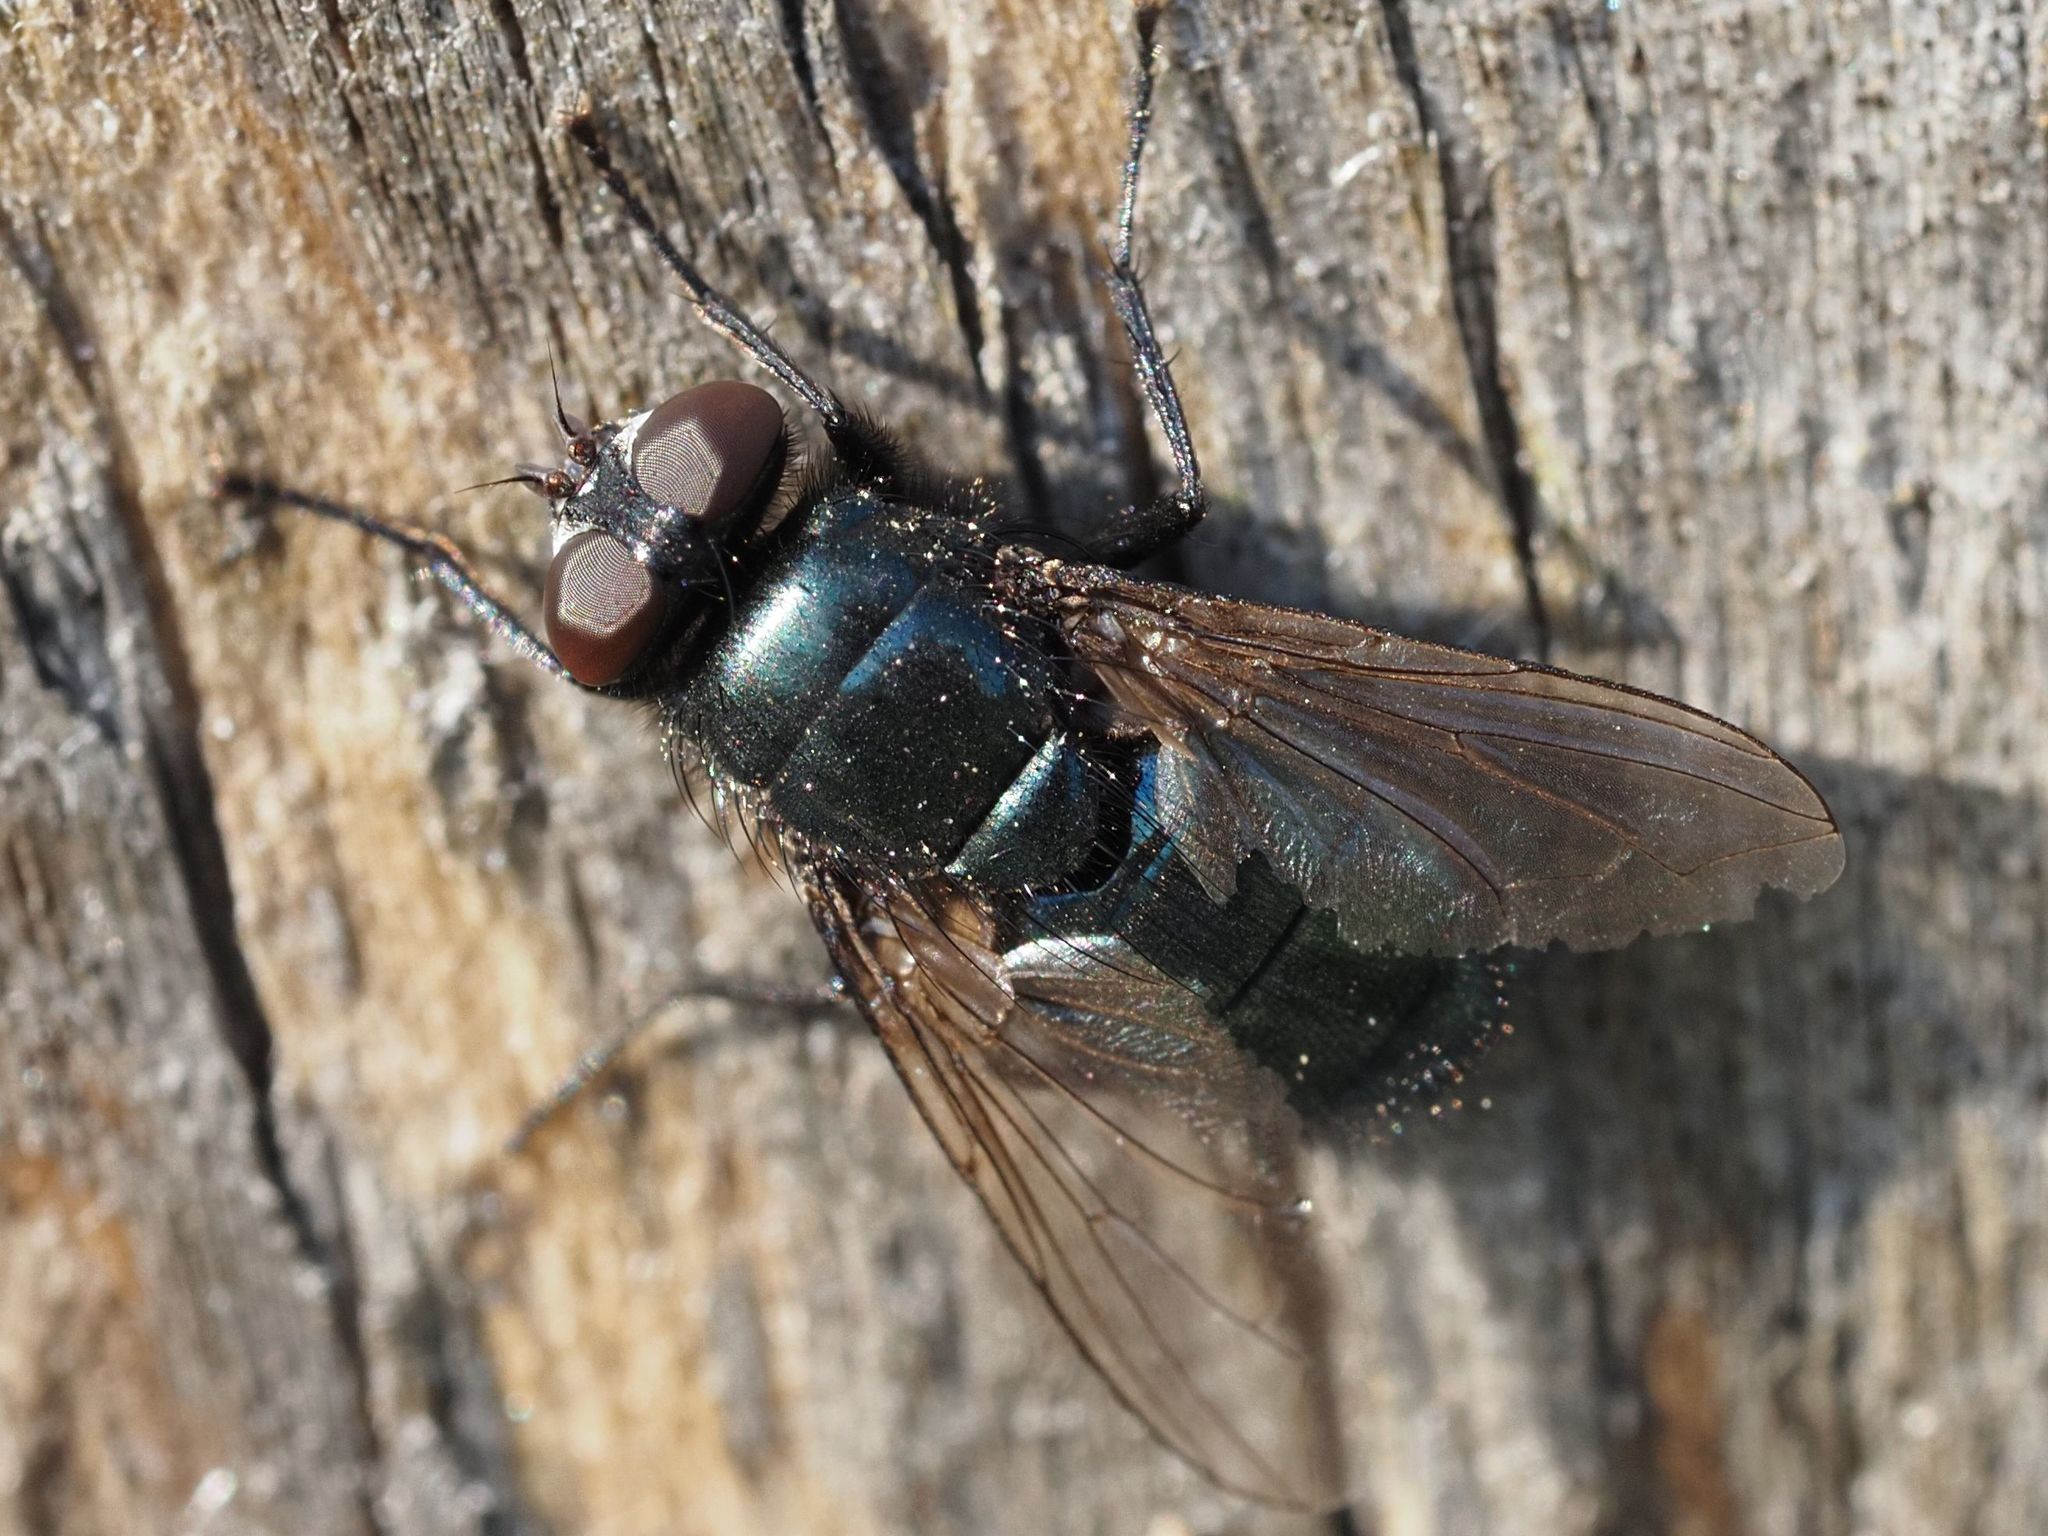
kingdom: Animalia
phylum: Arthropoda
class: Insecta
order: Diptera
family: Calliphoridae
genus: Protophormia
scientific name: Protophormia terraenovae
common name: Blackbottle
